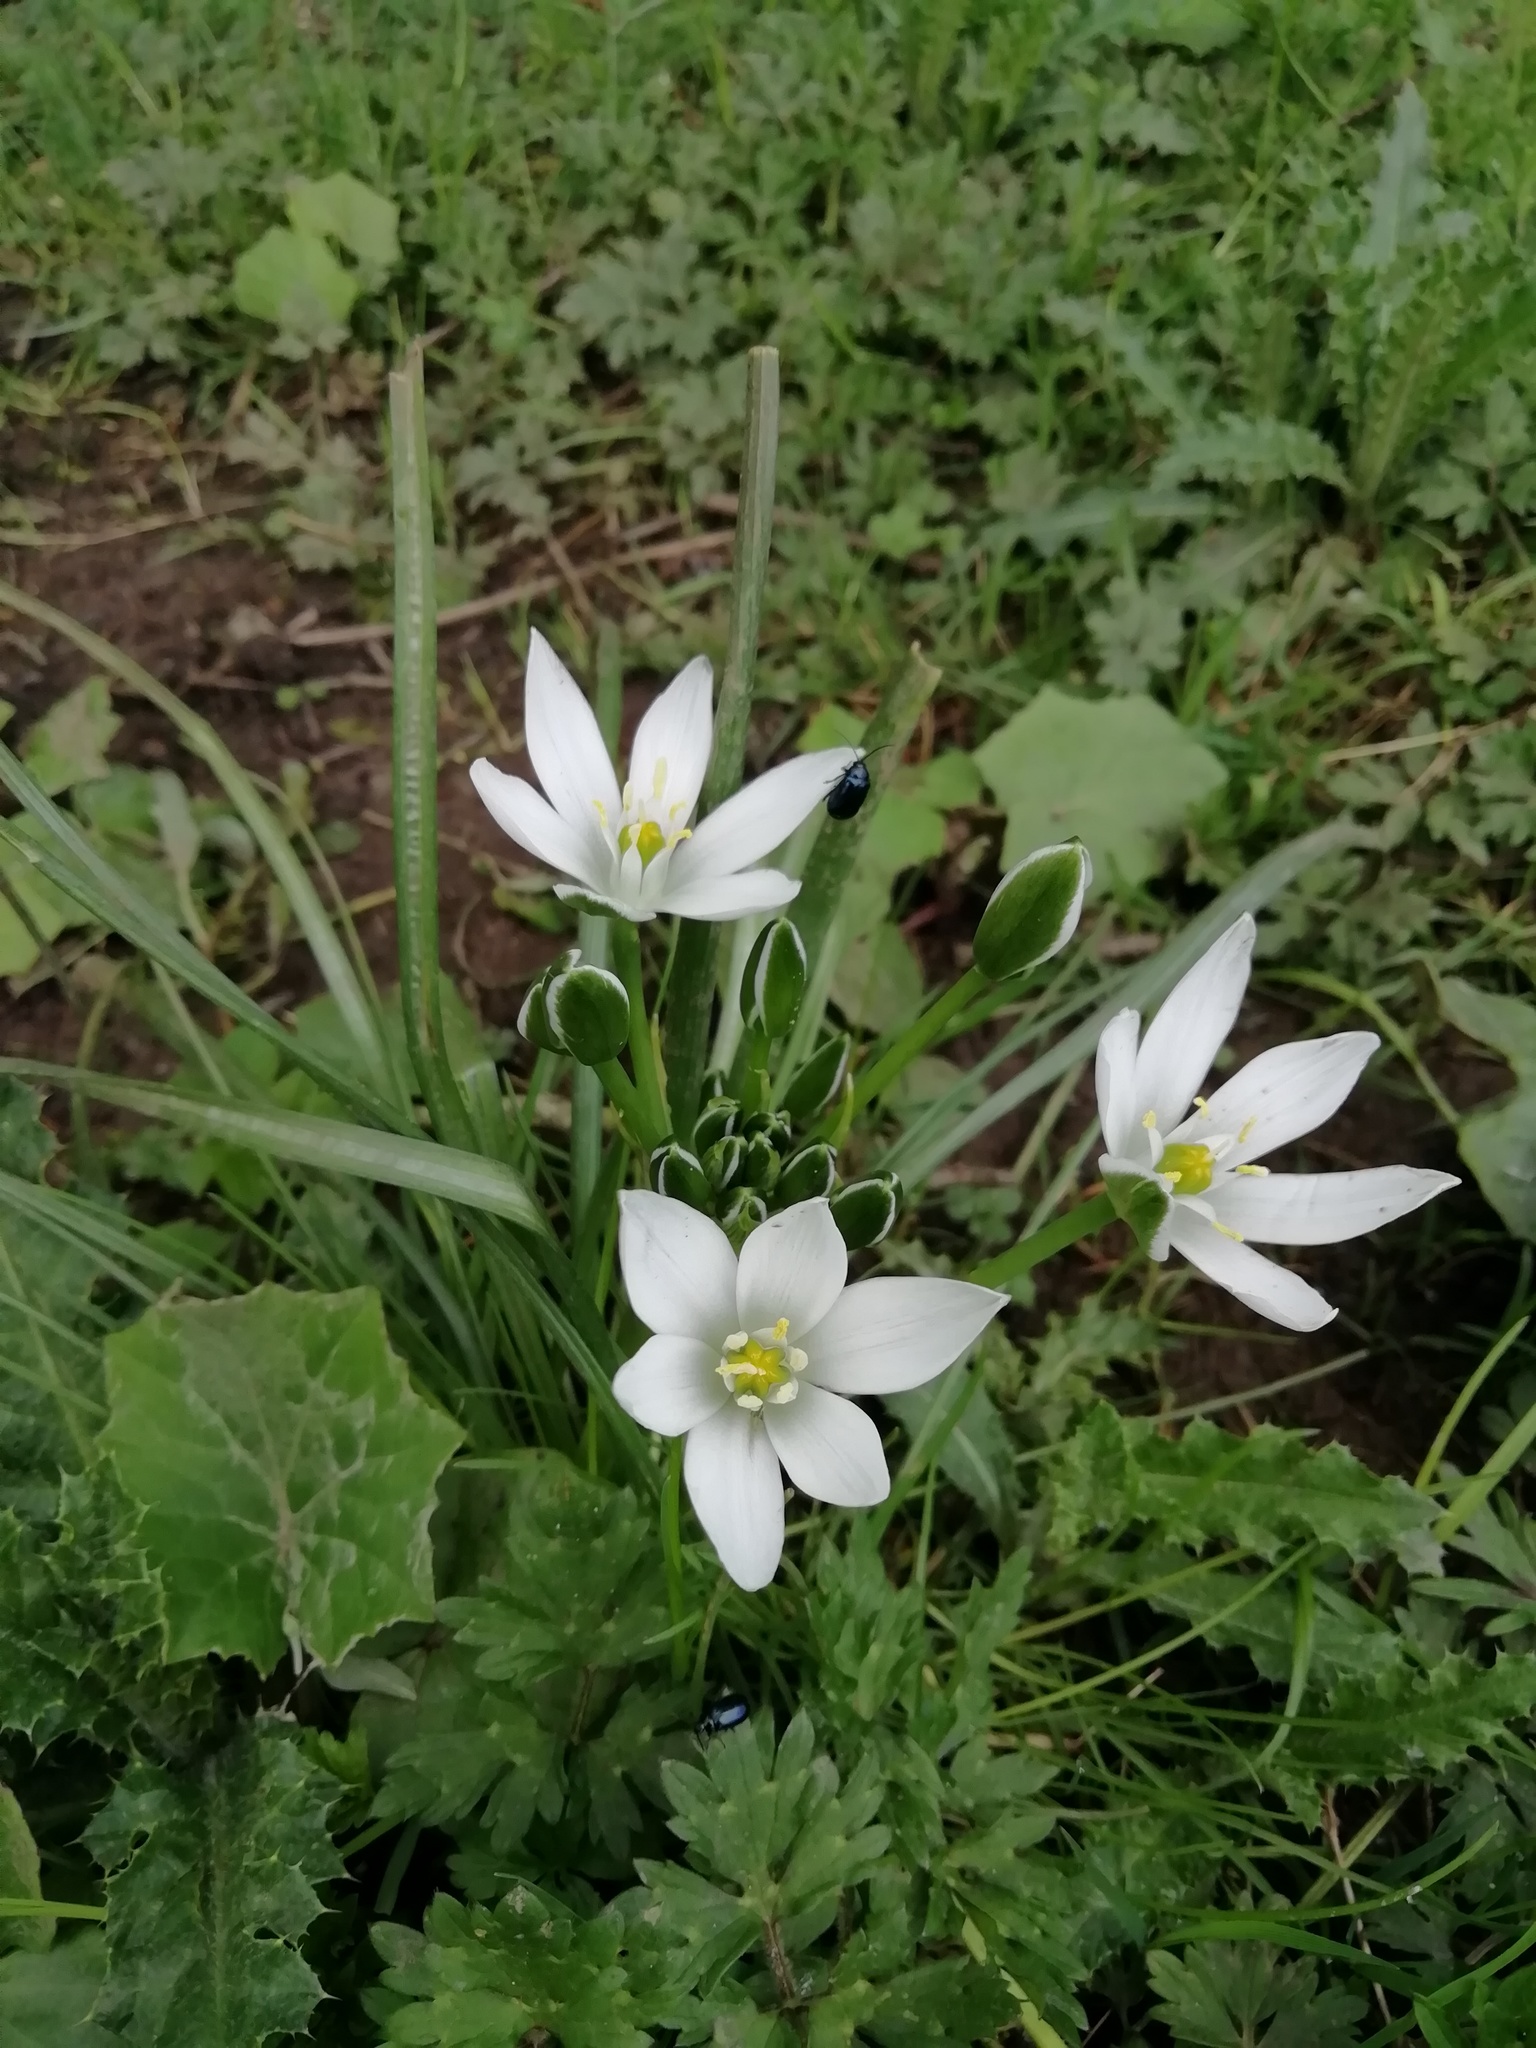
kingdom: Plantae
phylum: Tracheophyta
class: Liliopsida
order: Asparagales
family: Asparagaceae
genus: Ornithogalum
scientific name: Ornithogalum umbellatum
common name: Garden star-of-bethlehem
